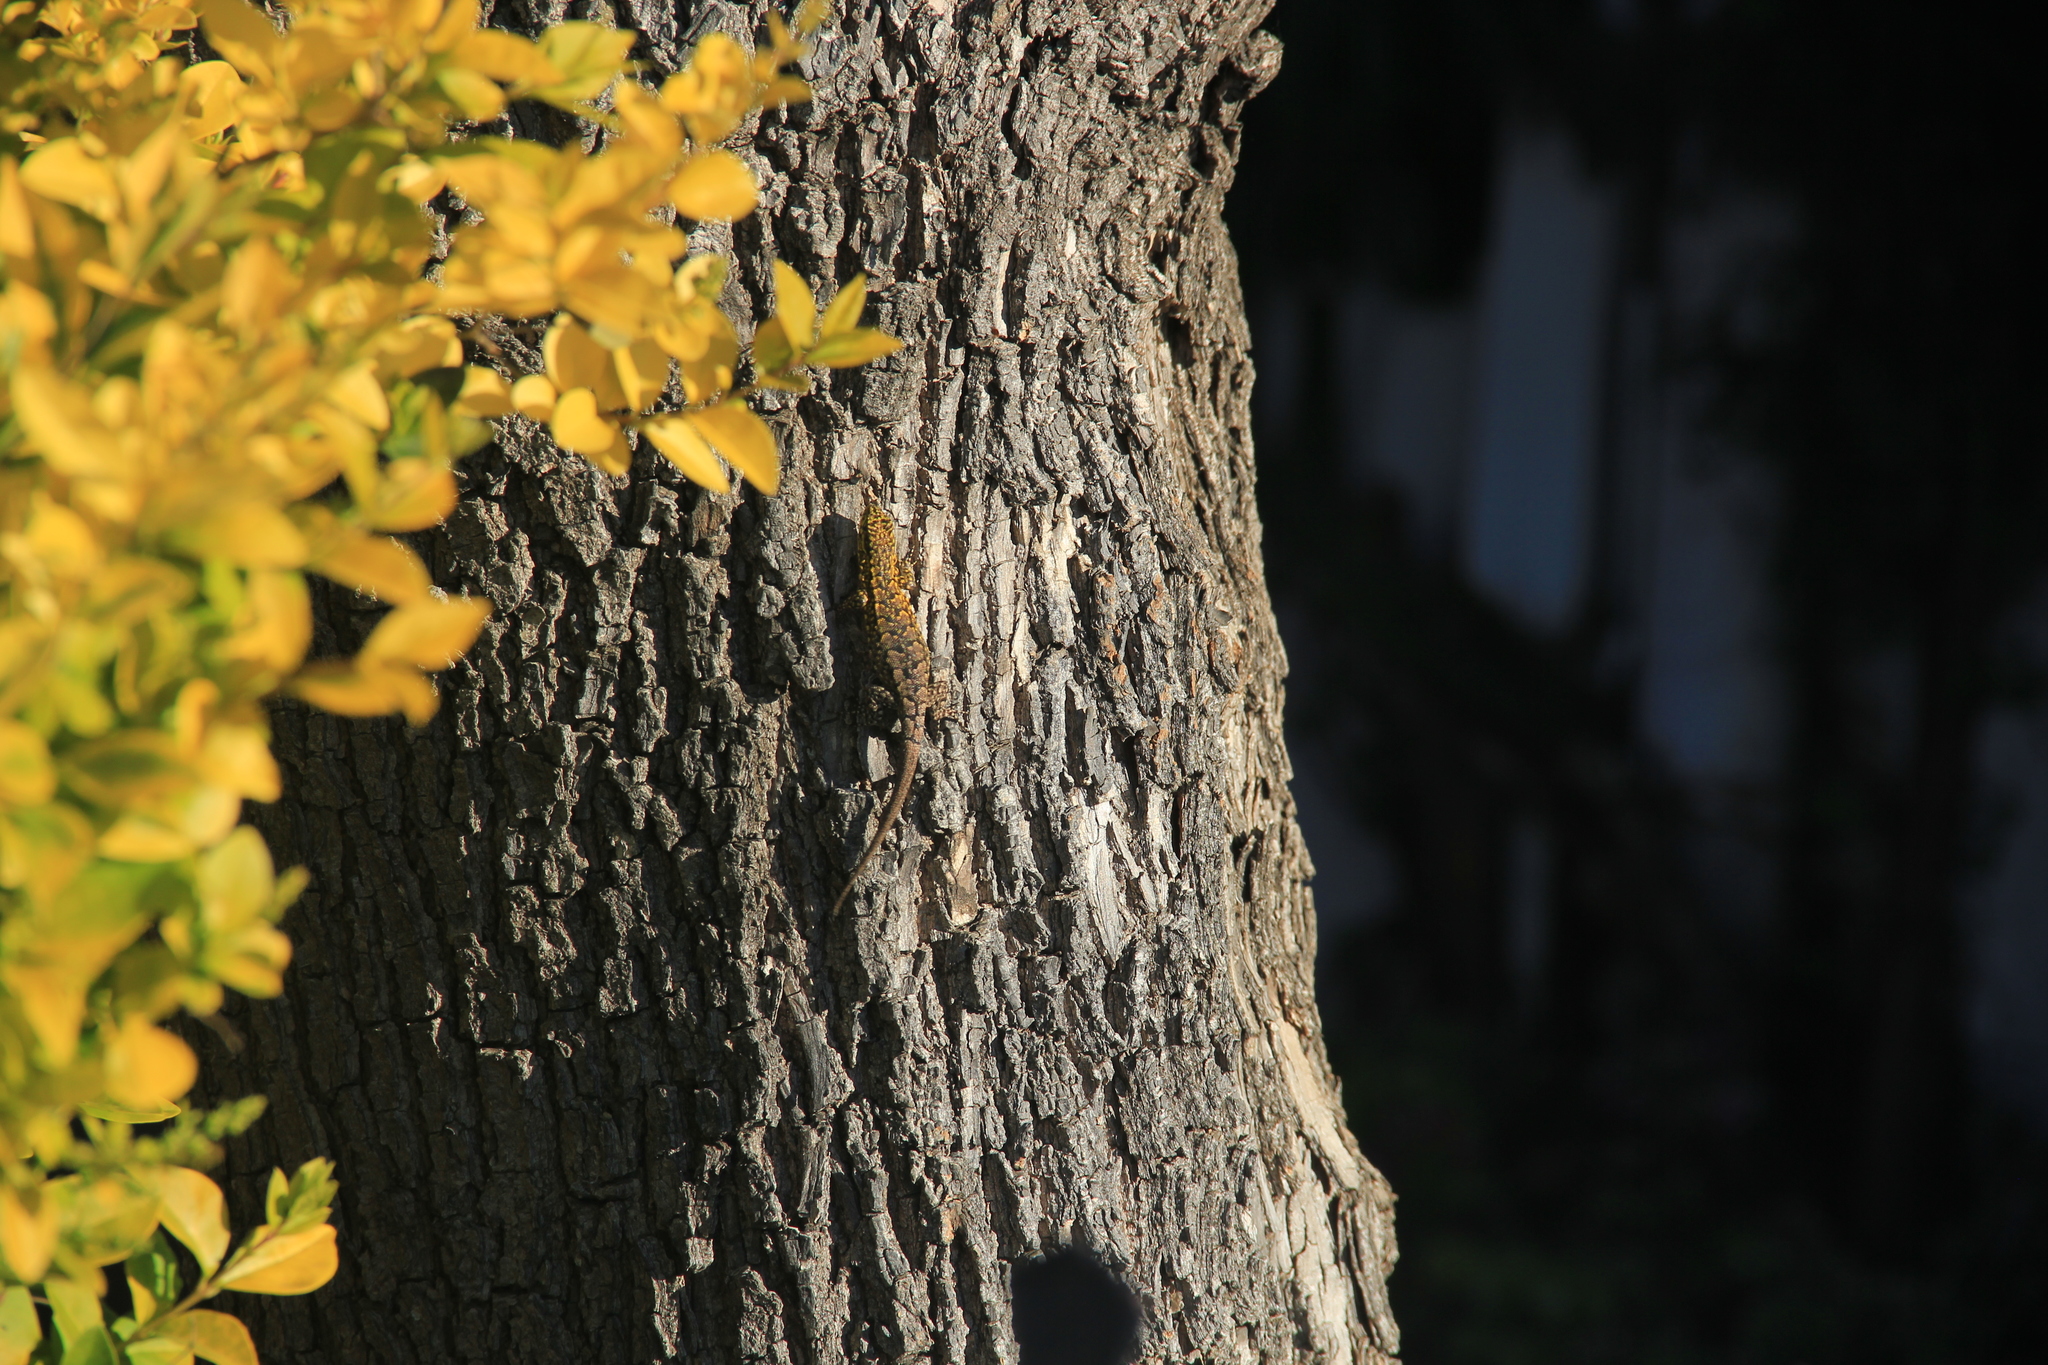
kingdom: Animalia
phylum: Chordata
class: Squamata
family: Liolaemidae
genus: Liolaemus
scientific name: Liolaemus tenuis
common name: Thin tree iguana
